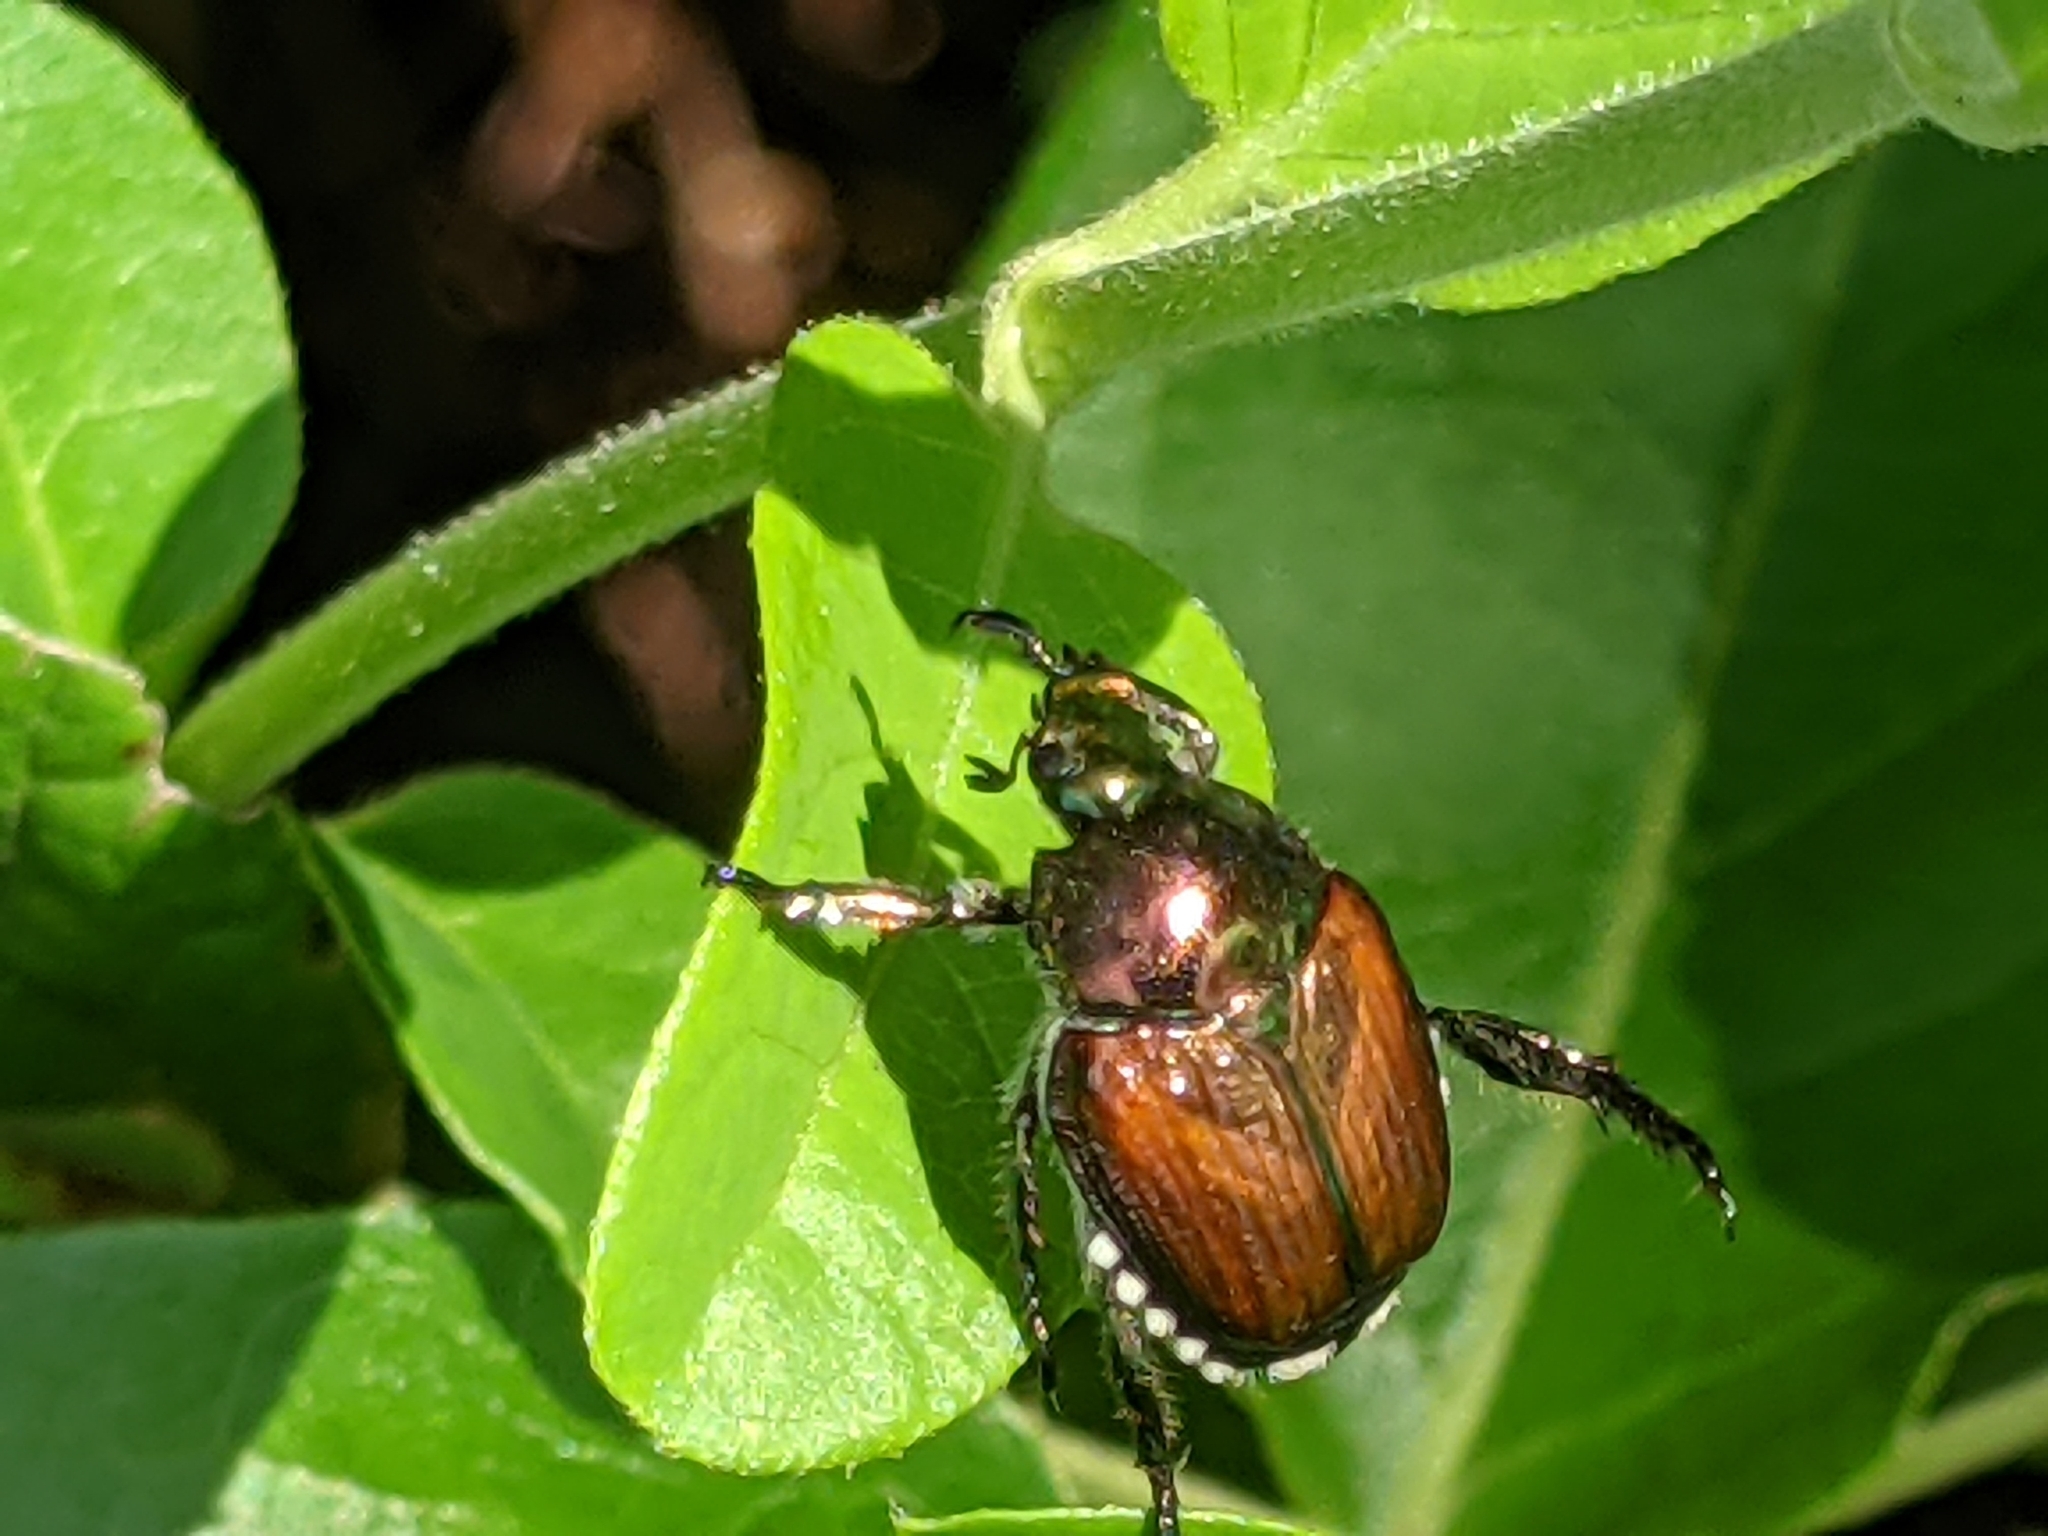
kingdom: Animalia
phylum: Arthropoda
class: Insecta
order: Coleoptera
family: Scarabaeidae
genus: Popillia
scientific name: Popillia japonica
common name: Japanese beetle
